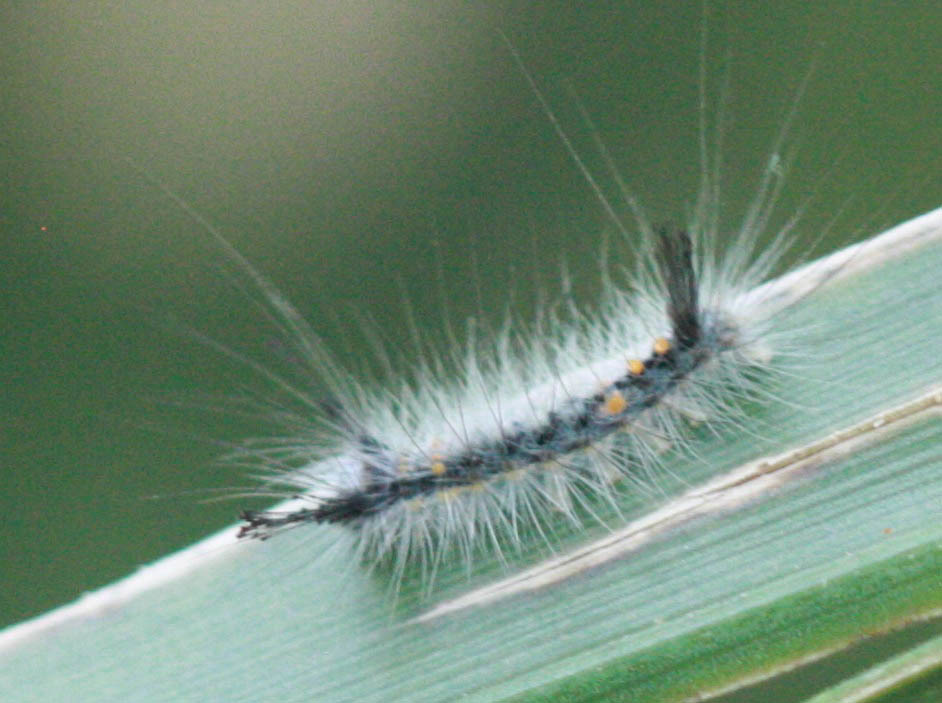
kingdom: Animalia
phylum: Arthropoda
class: Insecta
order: Lepidoptera
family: Erebidae
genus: Orgyia
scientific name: Orgyia detrita
